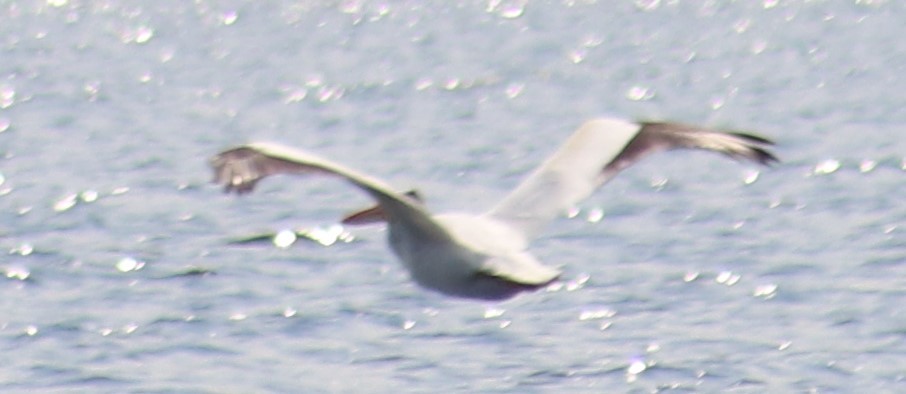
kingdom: Animalia
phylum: Chordata
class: Aves
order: Pelecaniformes
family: Pelecanidae
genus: Pelecanus
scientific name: Pelecanus erythrorhynchos
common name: American white pelican
